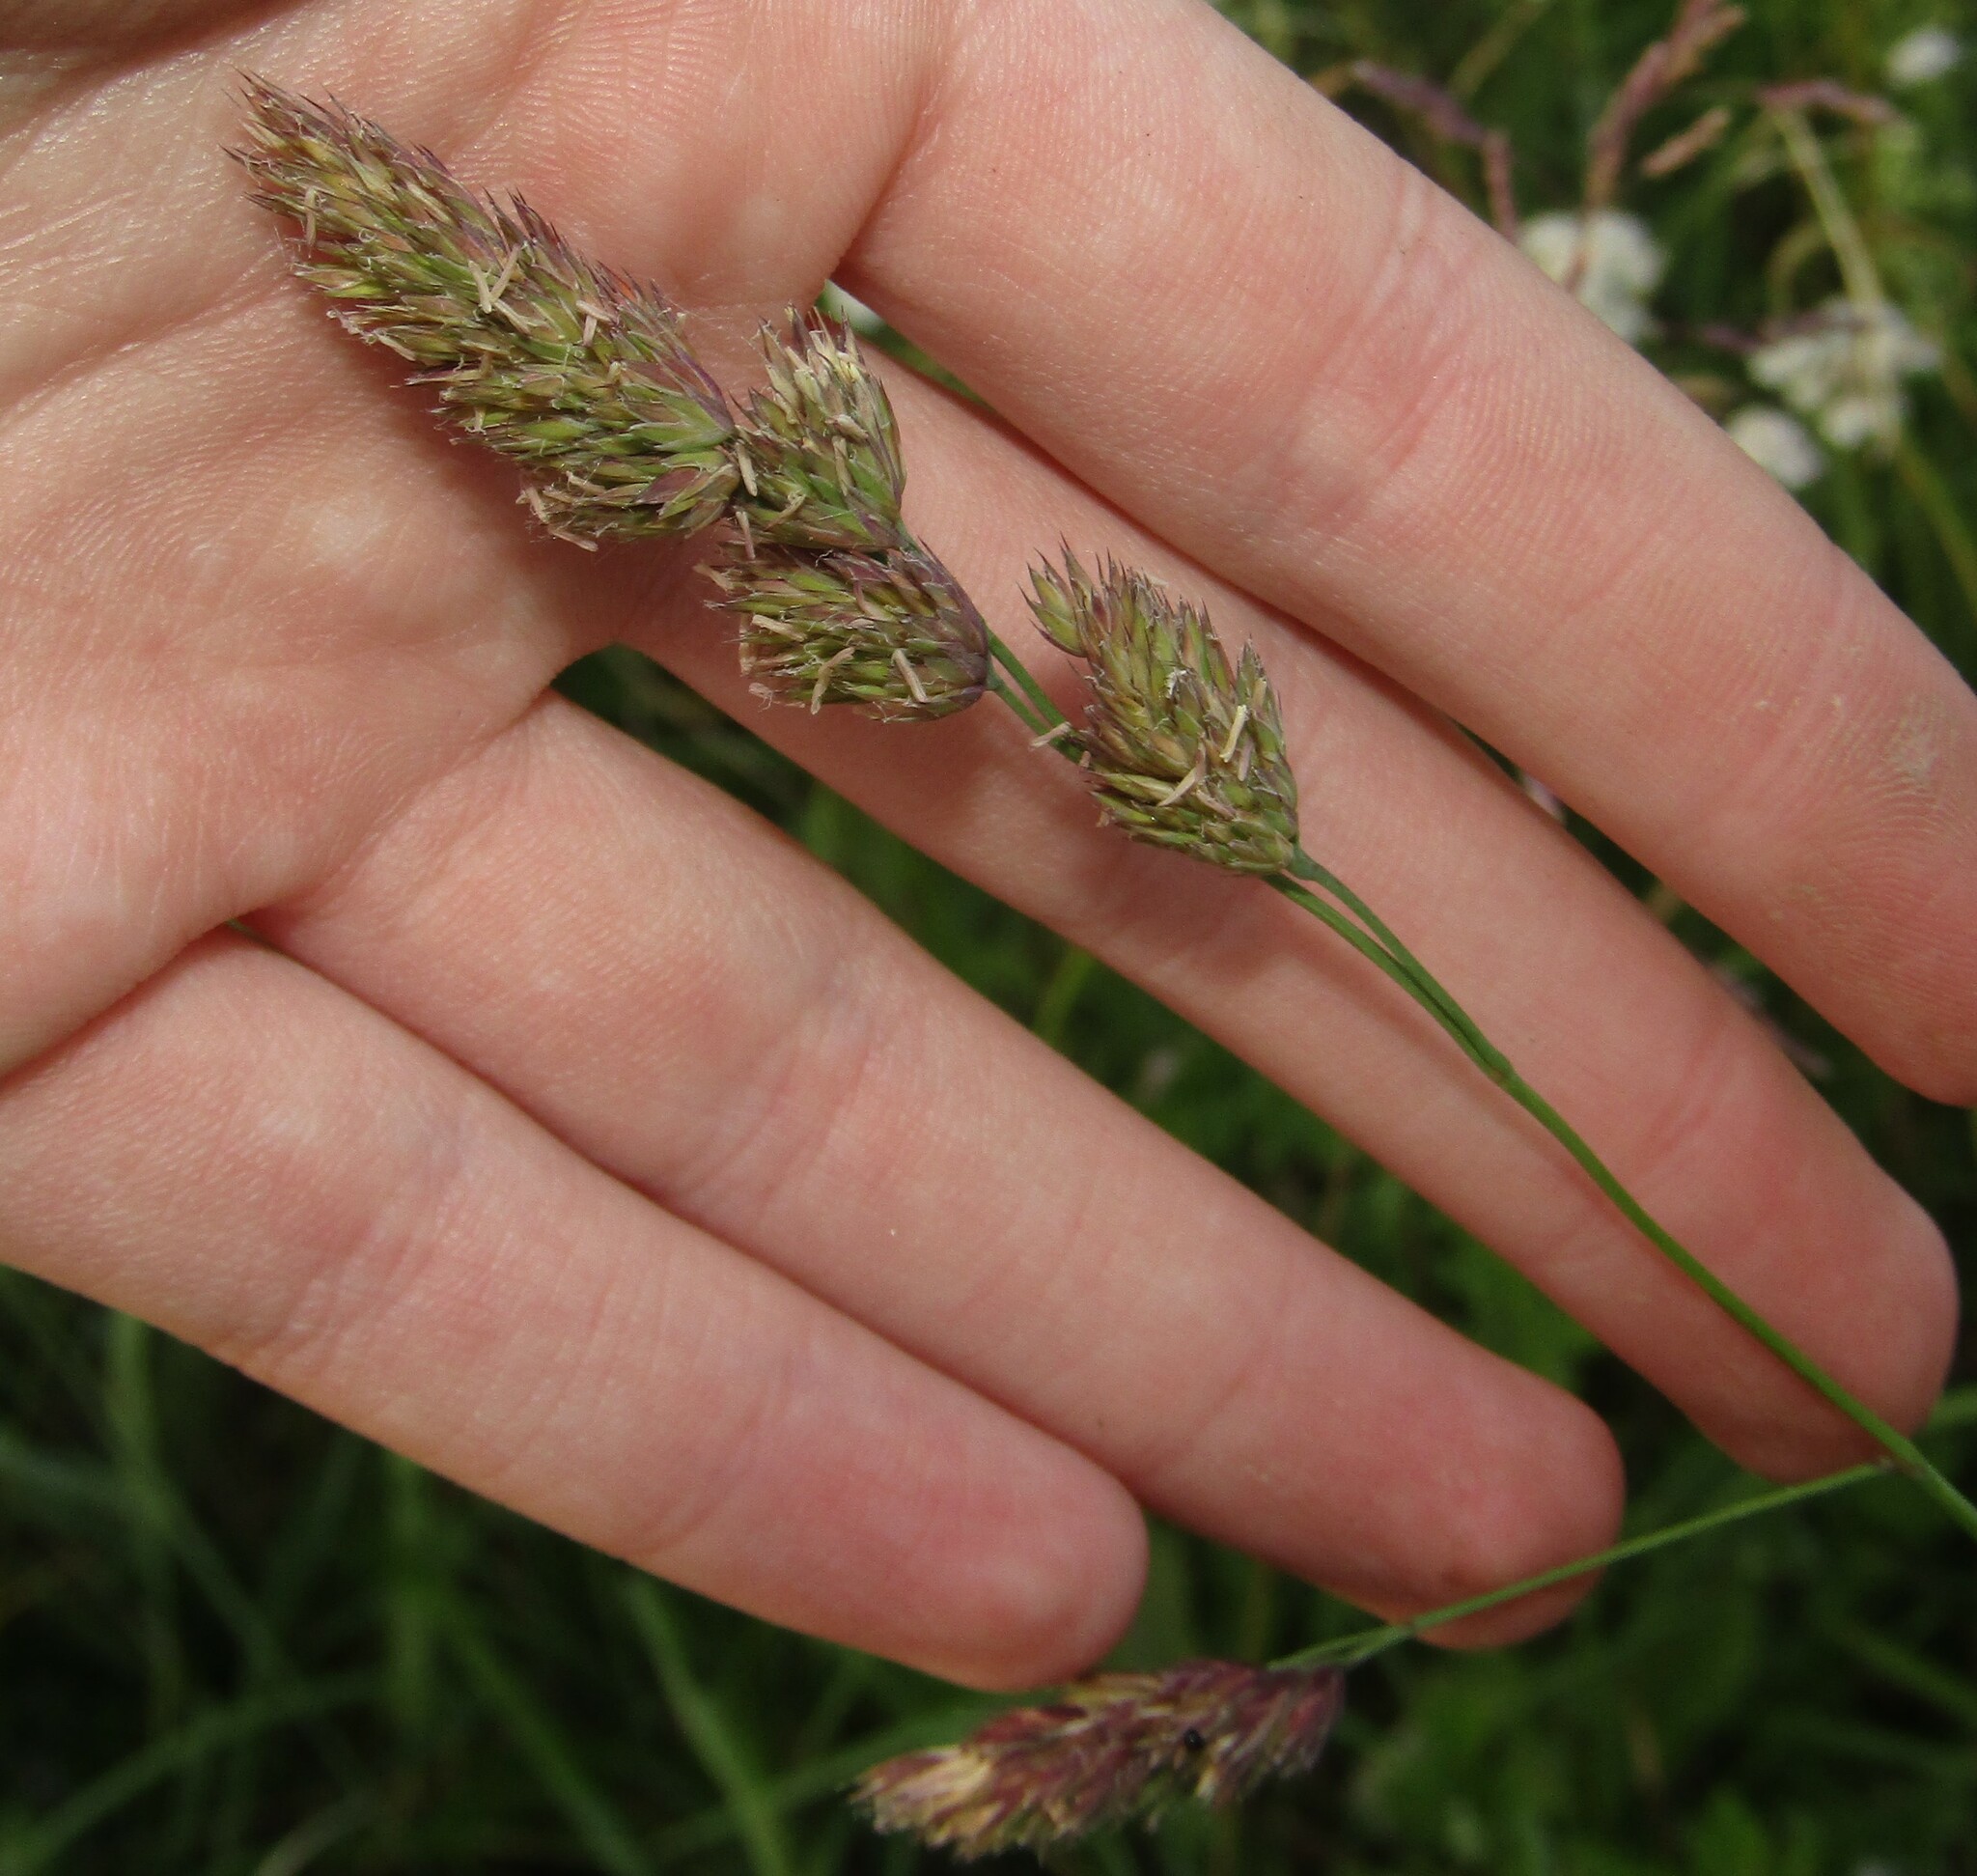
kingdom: Plantae
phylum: Tracheophyta
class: Liliopsida
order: Poales
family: Poaceae
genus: Dactylis
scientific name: Dactylis glomerata
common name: Orchardgrass
